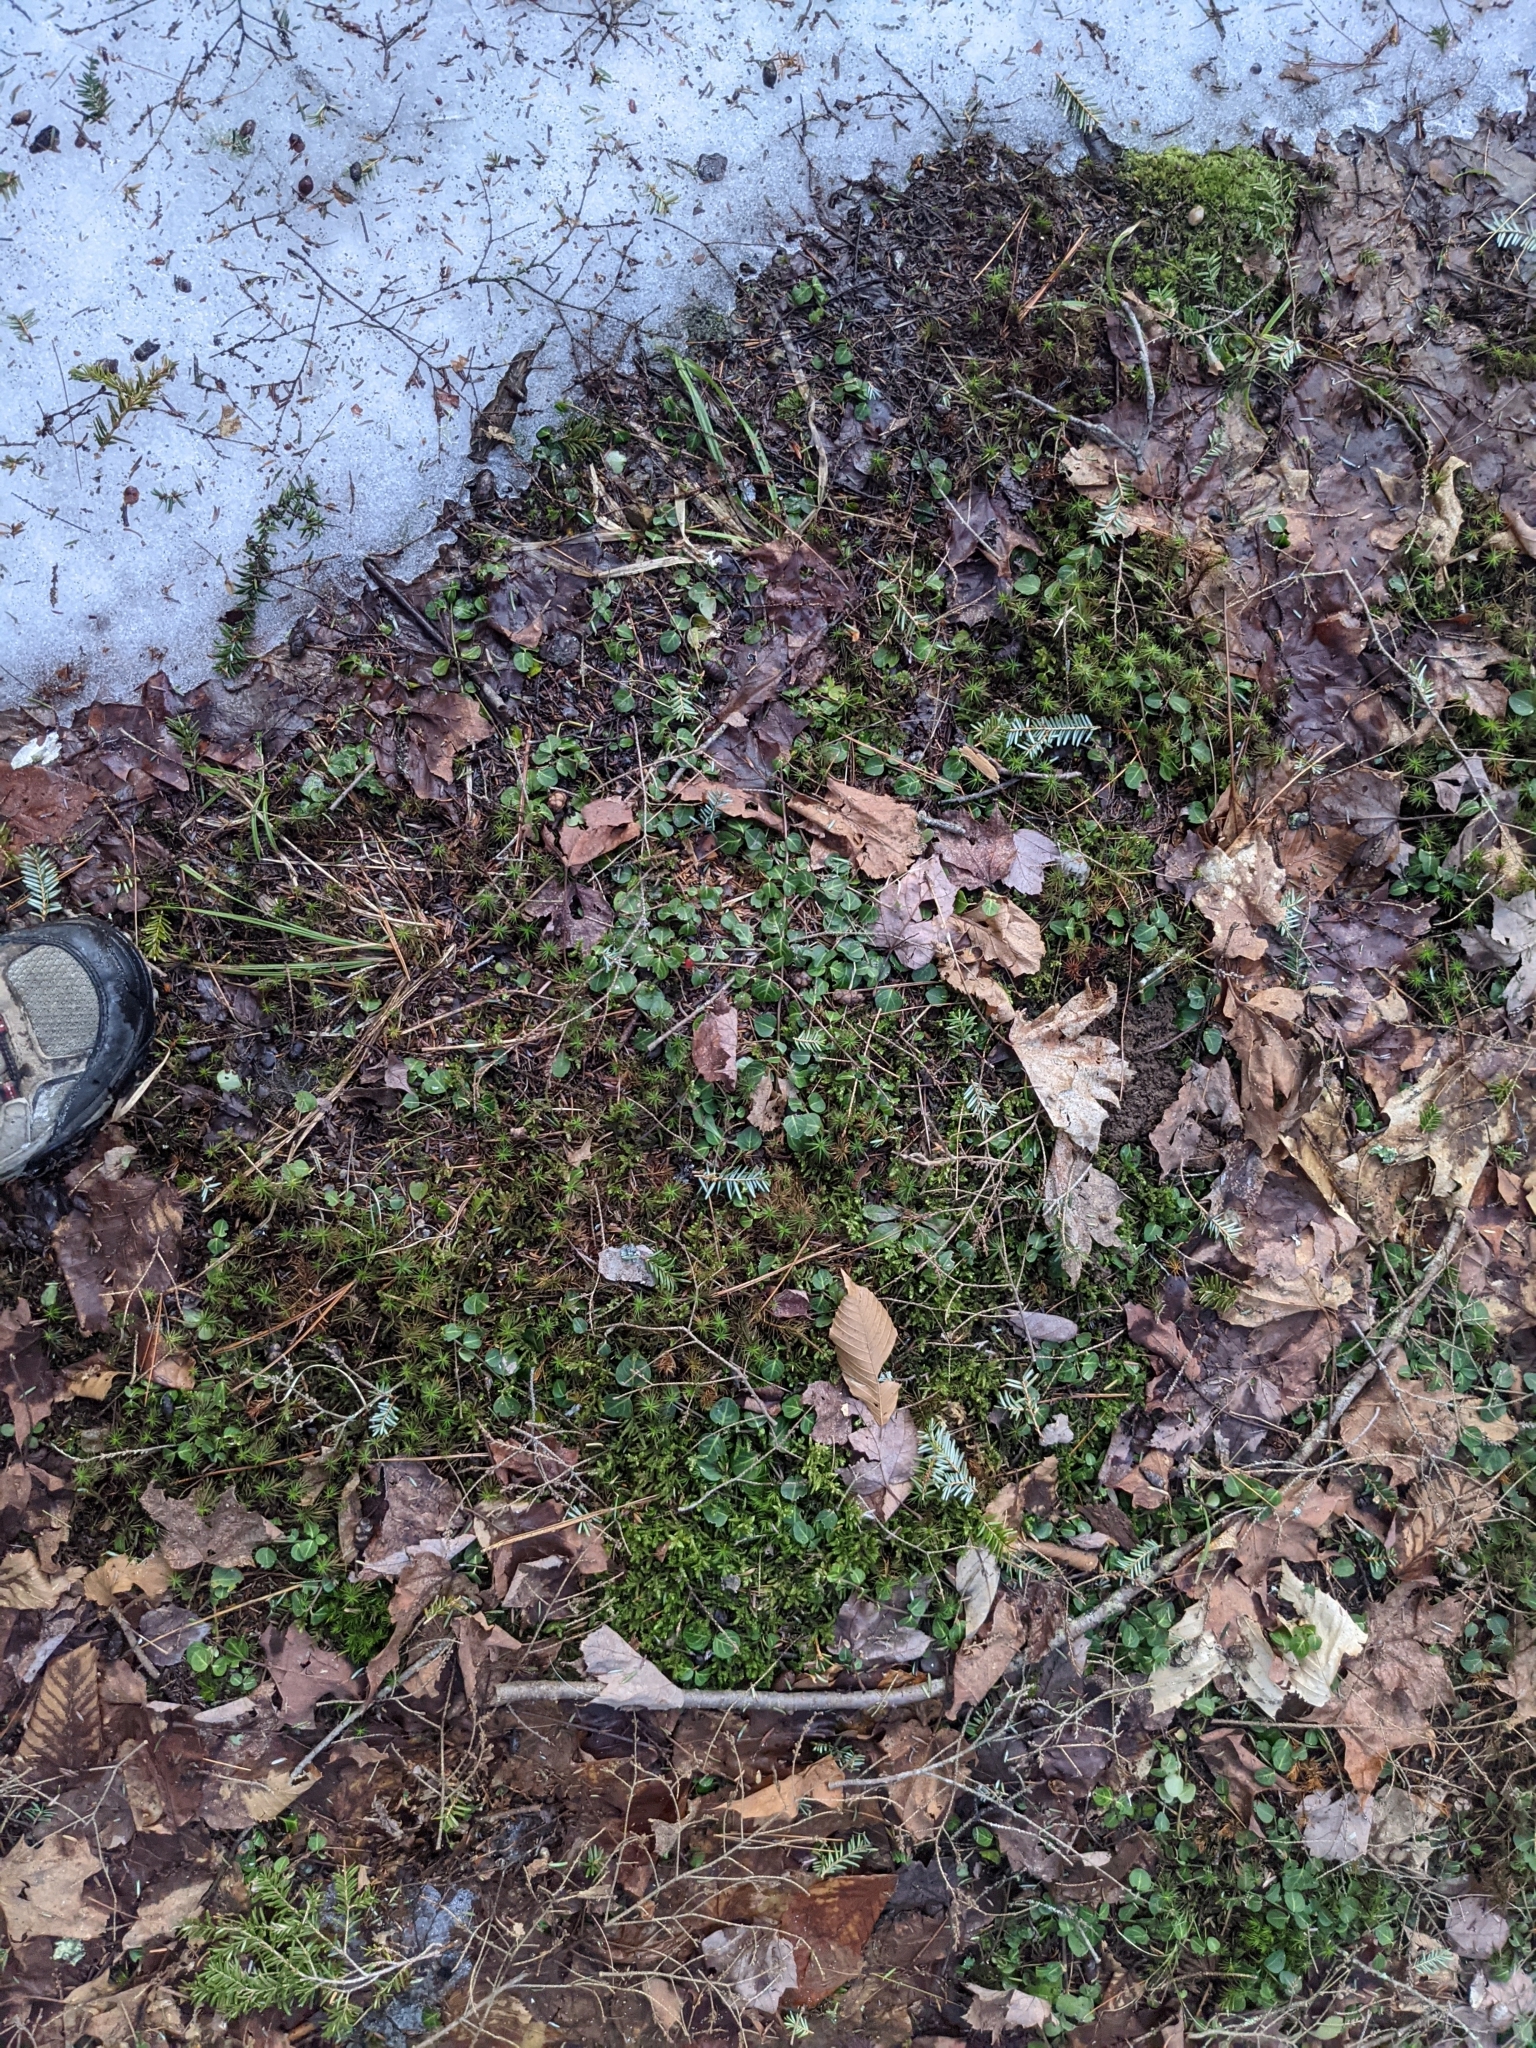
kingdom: Plantae
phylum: Tracheophyta
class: Magnoliopsida
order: Gentianales
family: Rubiaceae
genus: Mitchella
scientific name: Mitchella repens
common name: Partridge-berry
